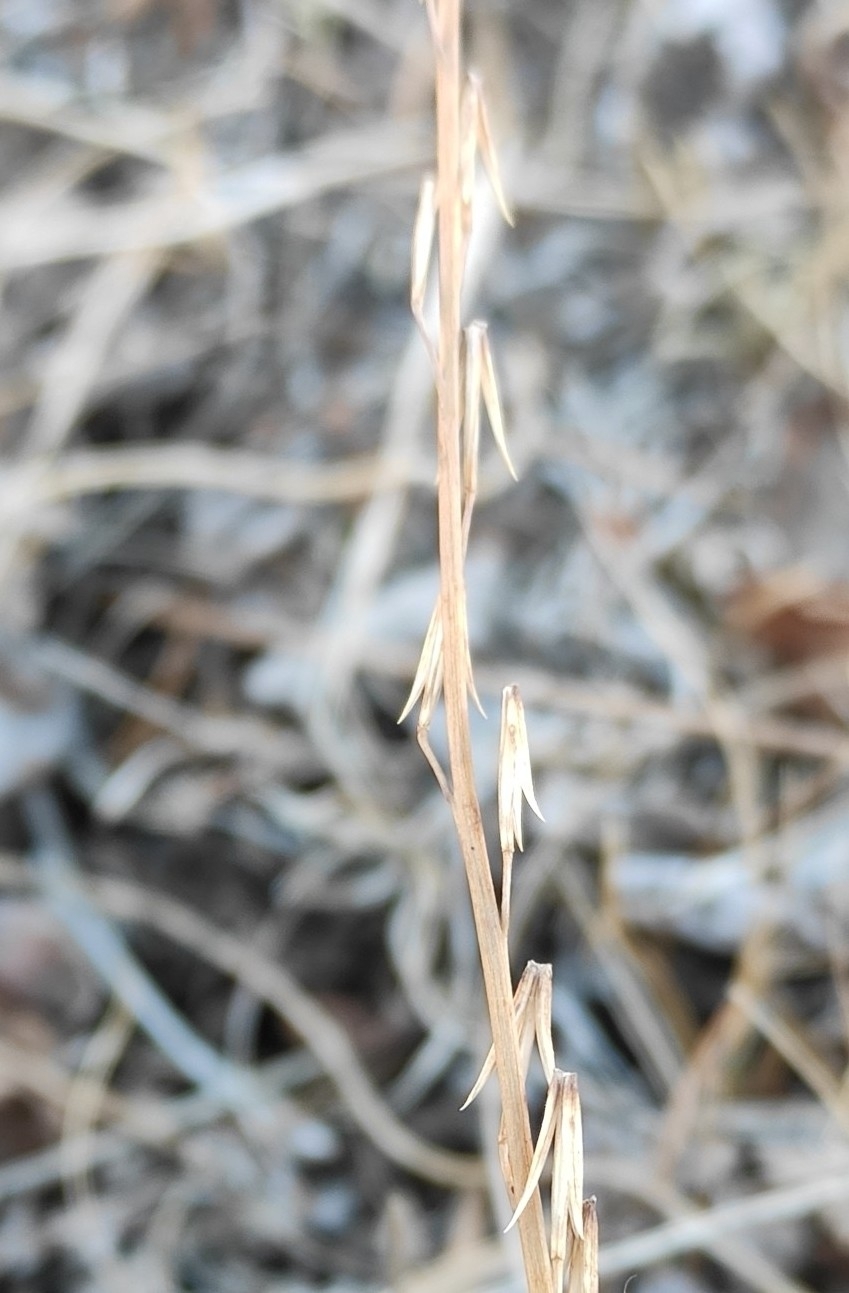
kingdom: Plantae
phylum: Tracheophyta
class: Liliopsida
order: Alismatales
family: Juncaginaceae
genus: Triglochin
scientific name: Triglochin palustris
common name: Marsh arrowgrass
